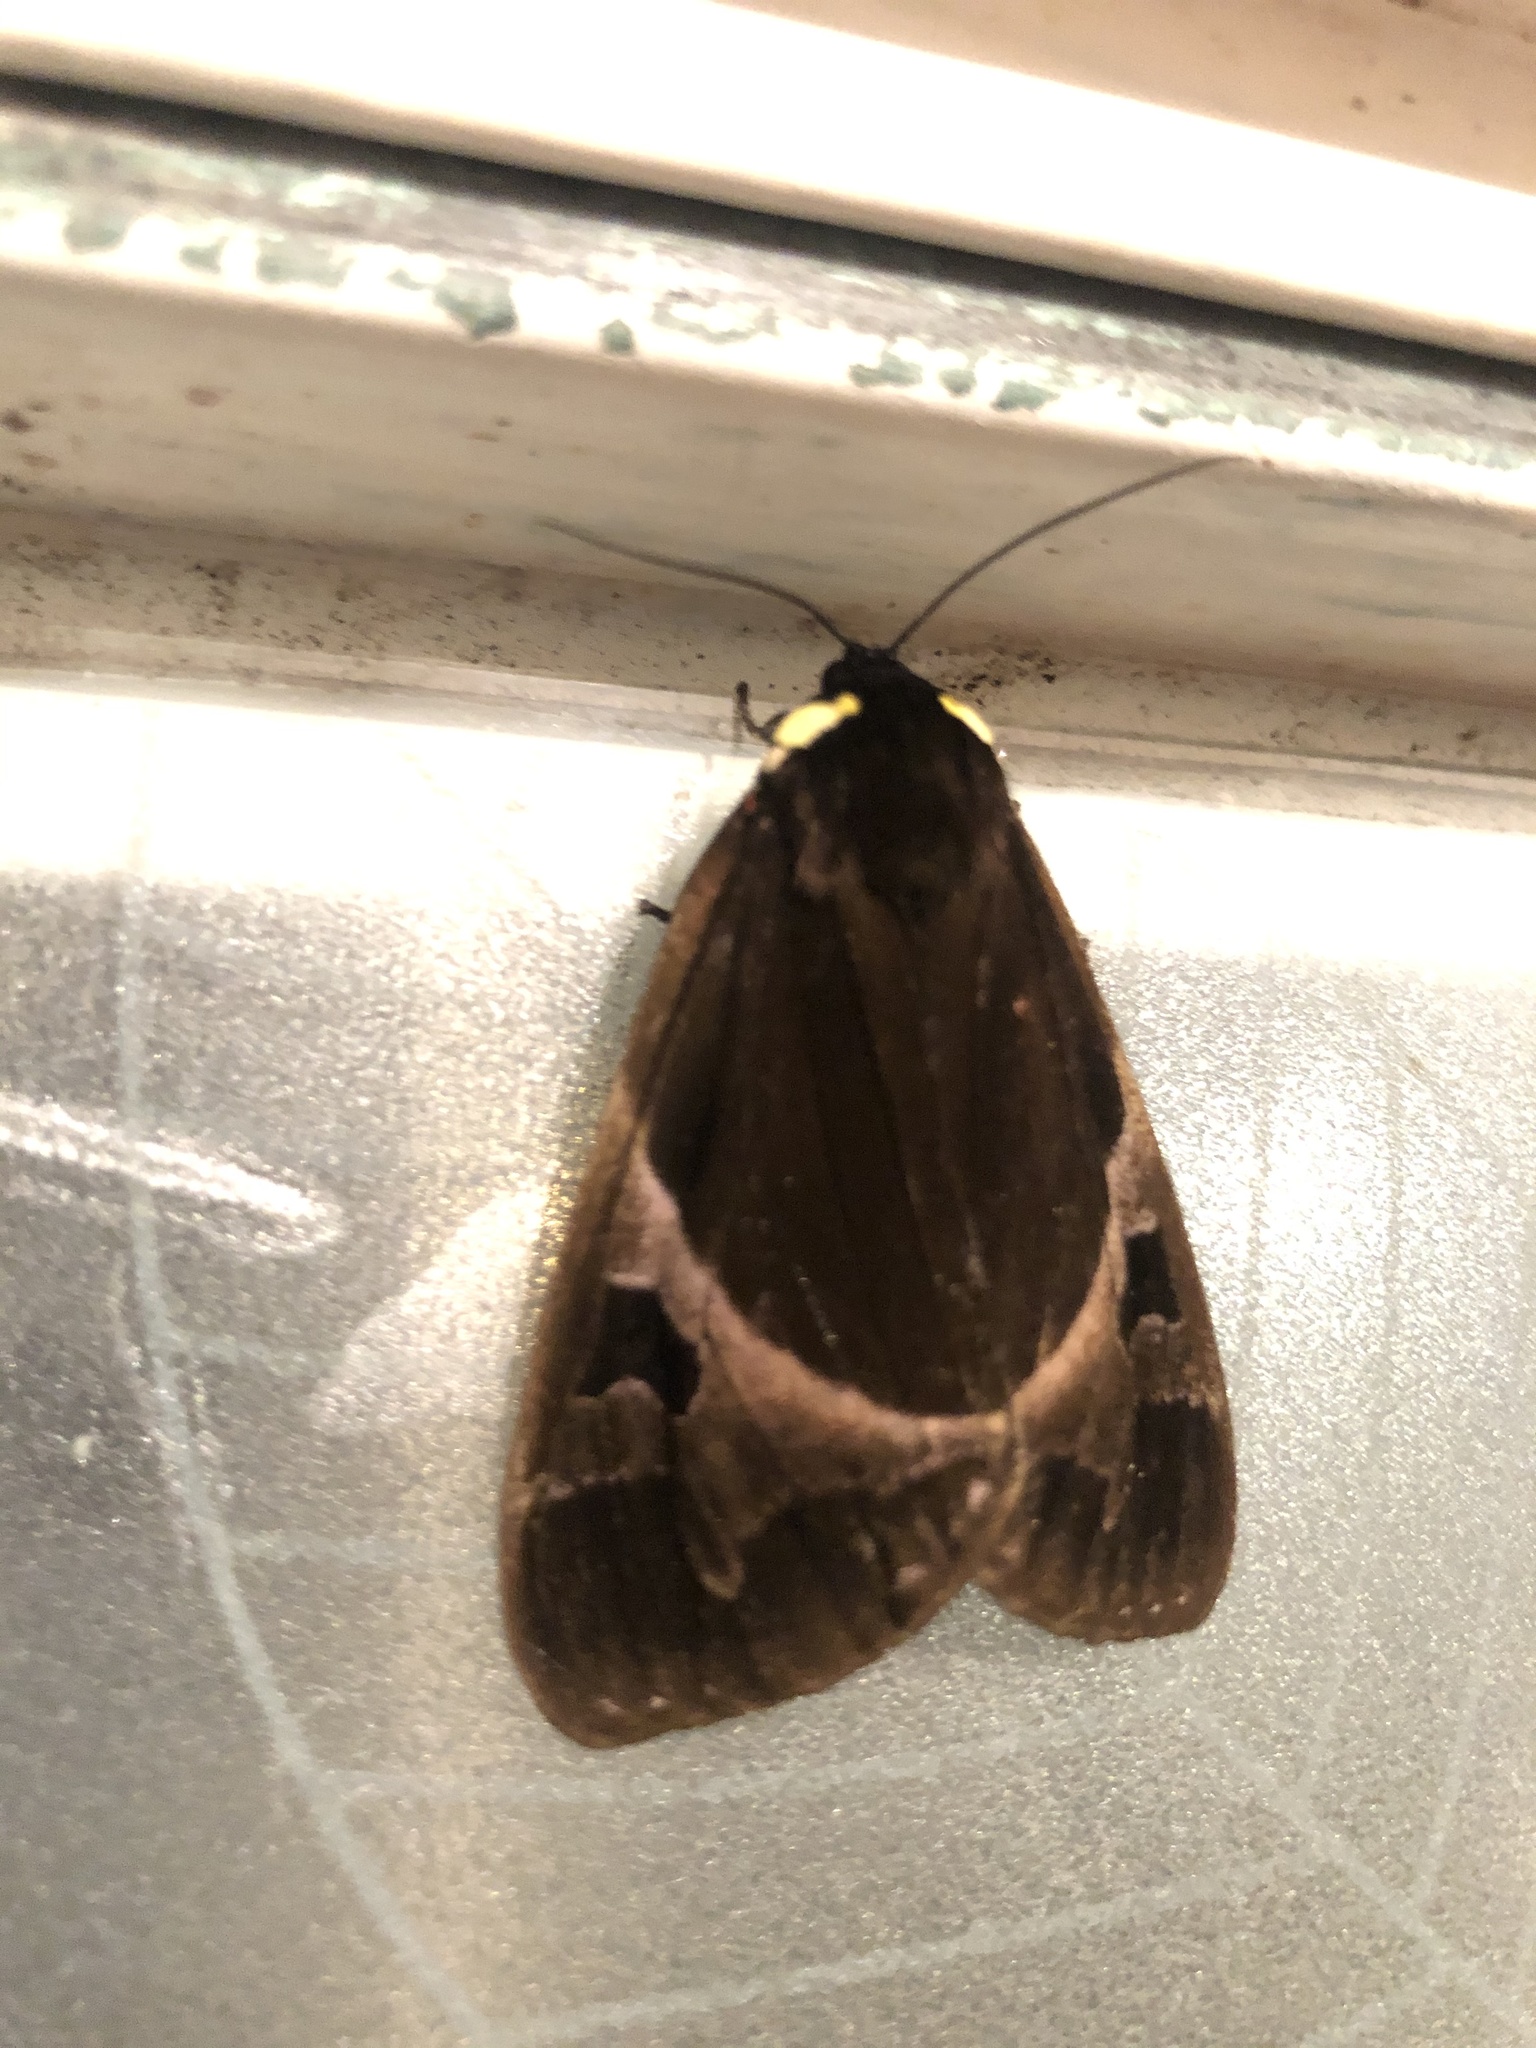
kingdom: Animalia
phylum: Arthropoda
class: Insecta
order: Lepidoptera
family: Erebidae
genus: Dysschema
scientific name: Dysschema gaumeri
